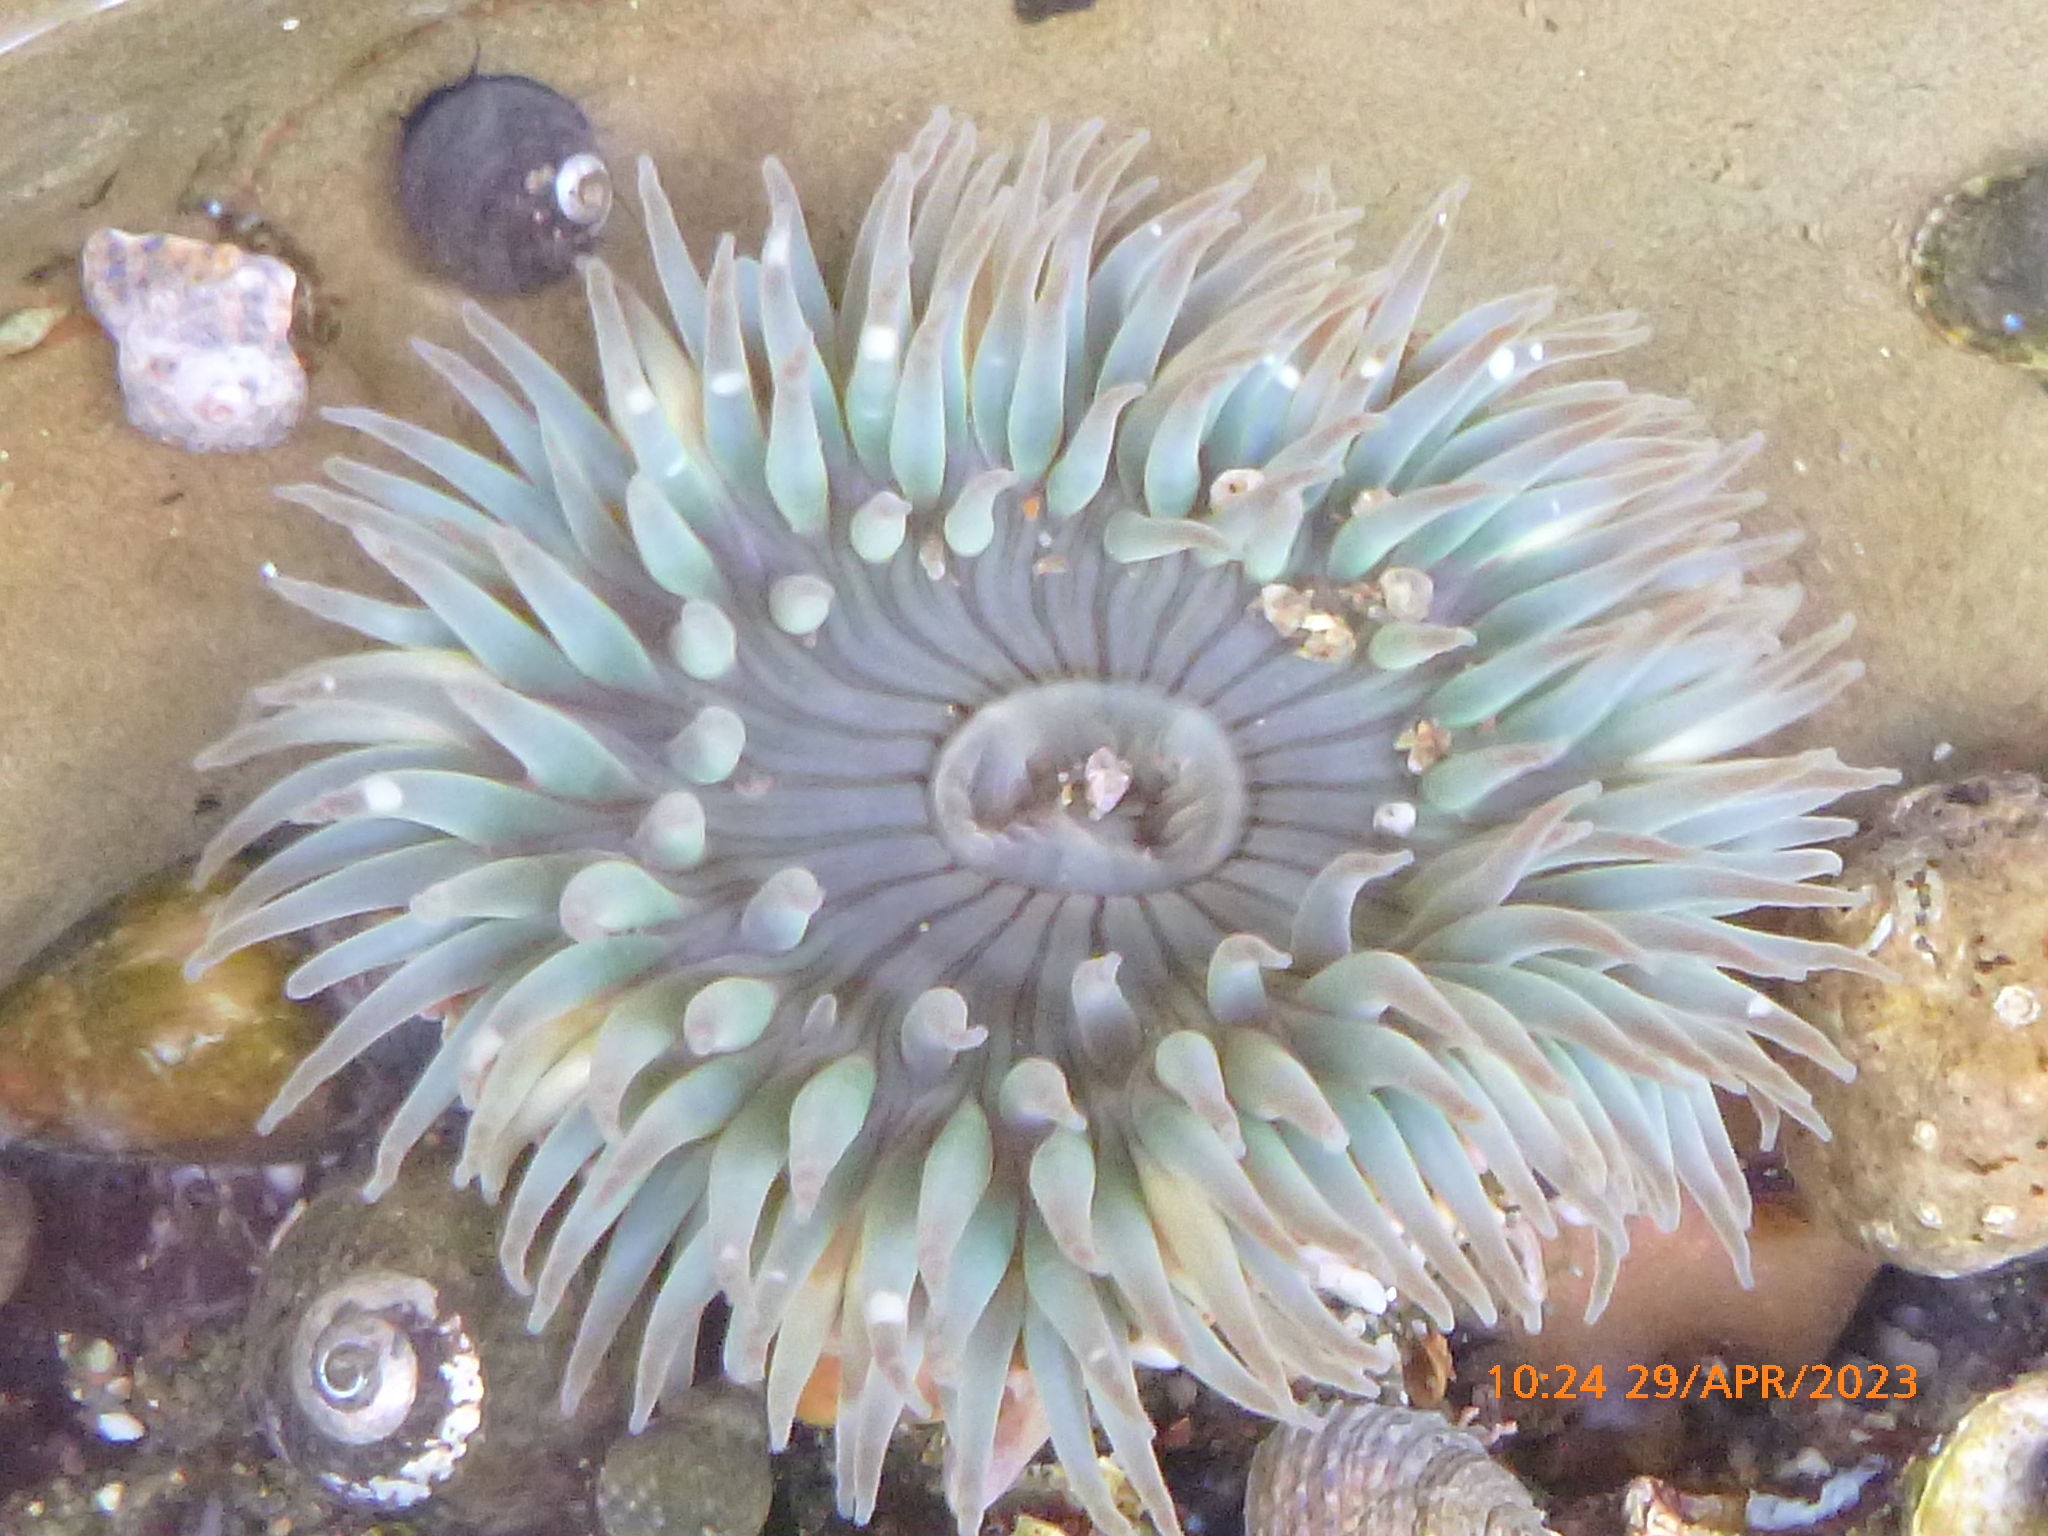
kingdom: Animalia
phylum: Cnidaria
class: Anthozoa
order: Actiniaria
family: Actiniidae
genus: Anthopleura
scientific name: Anthopleura sola
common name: Sun anemone
